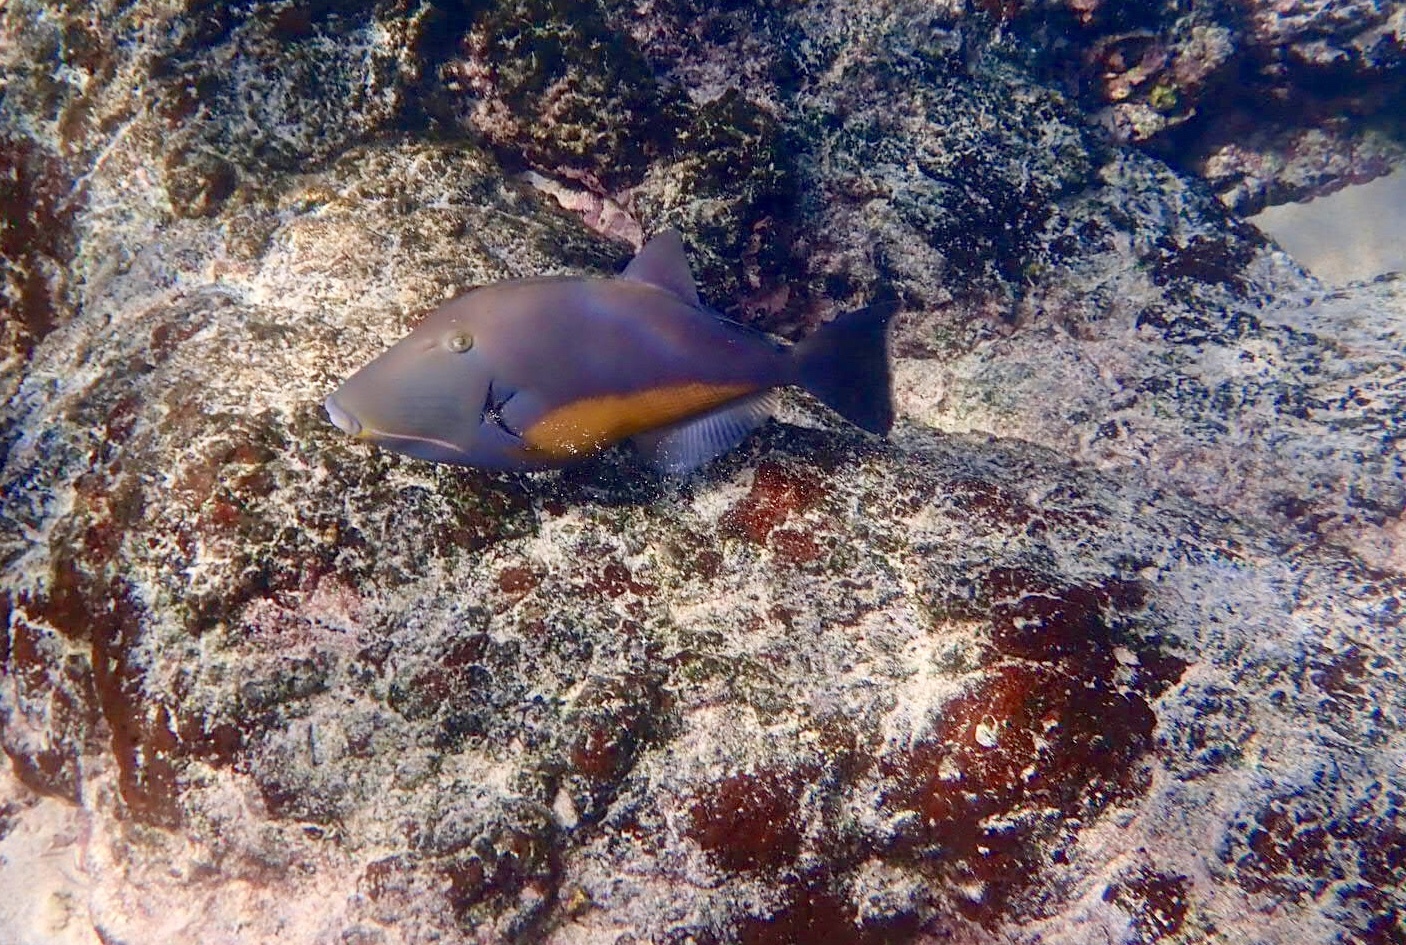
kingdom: Animalia
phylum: Chordata
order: Tetraodontiformes
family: Balistidae
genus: Sufflamen
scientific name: Sufflamen verres
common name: Orangeside triggerfish
